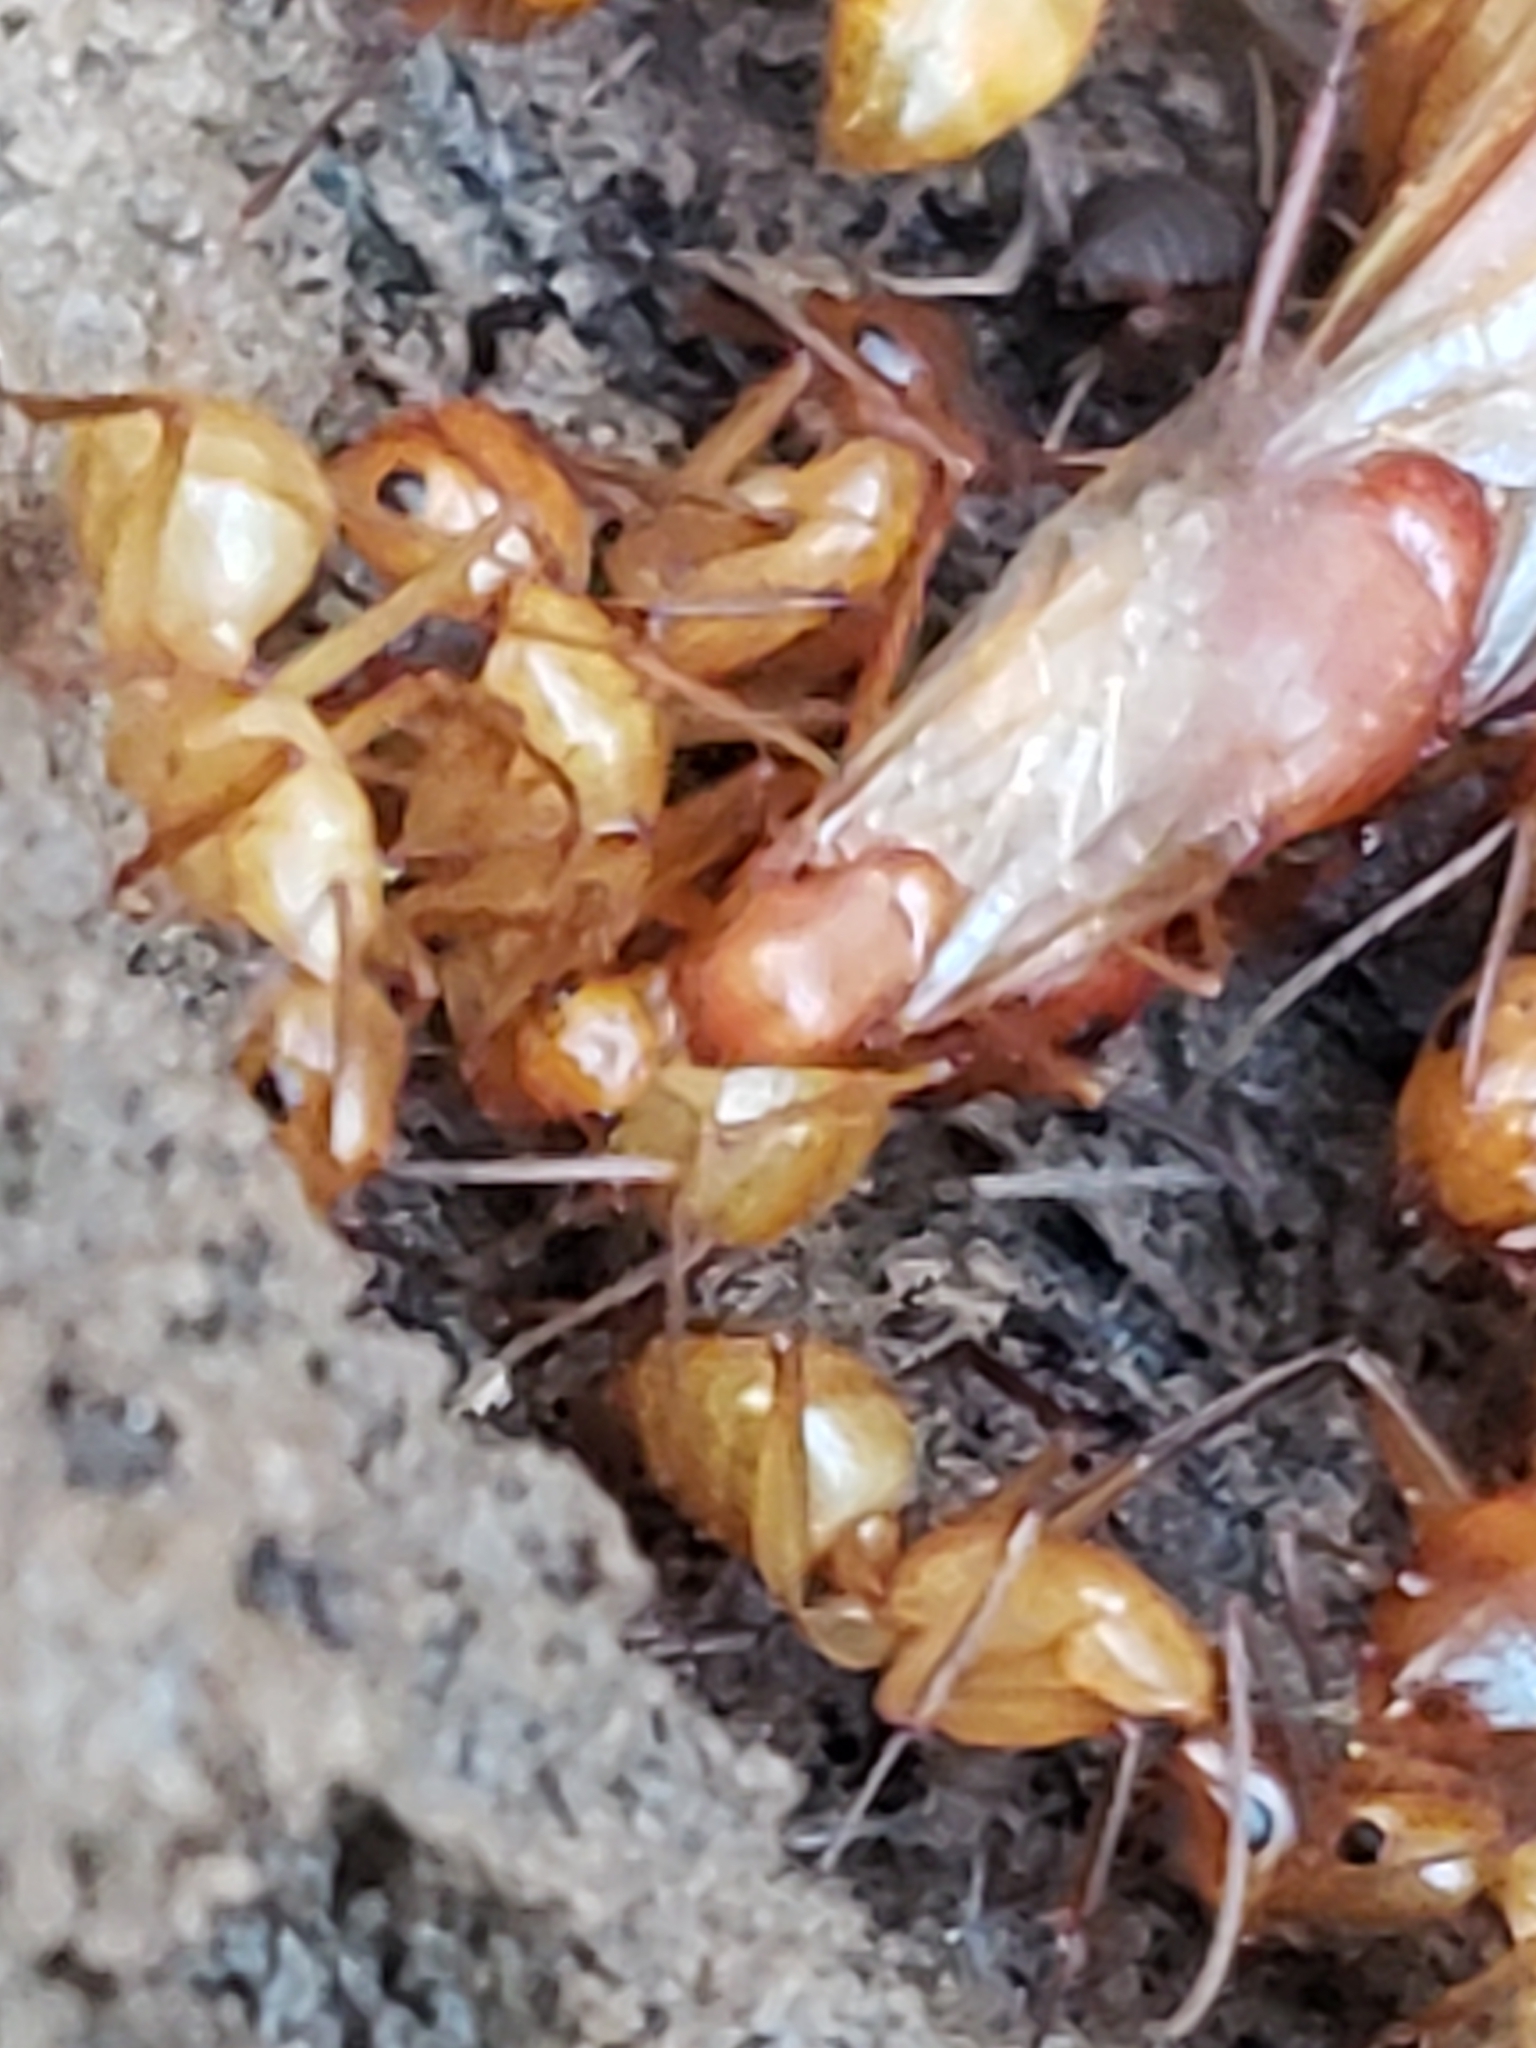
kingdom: Animalia
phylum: Arthropoda
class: Insecta
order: Hymenoptera
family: Formicidae
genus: Camponotus
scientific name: Camponotus castaneus
